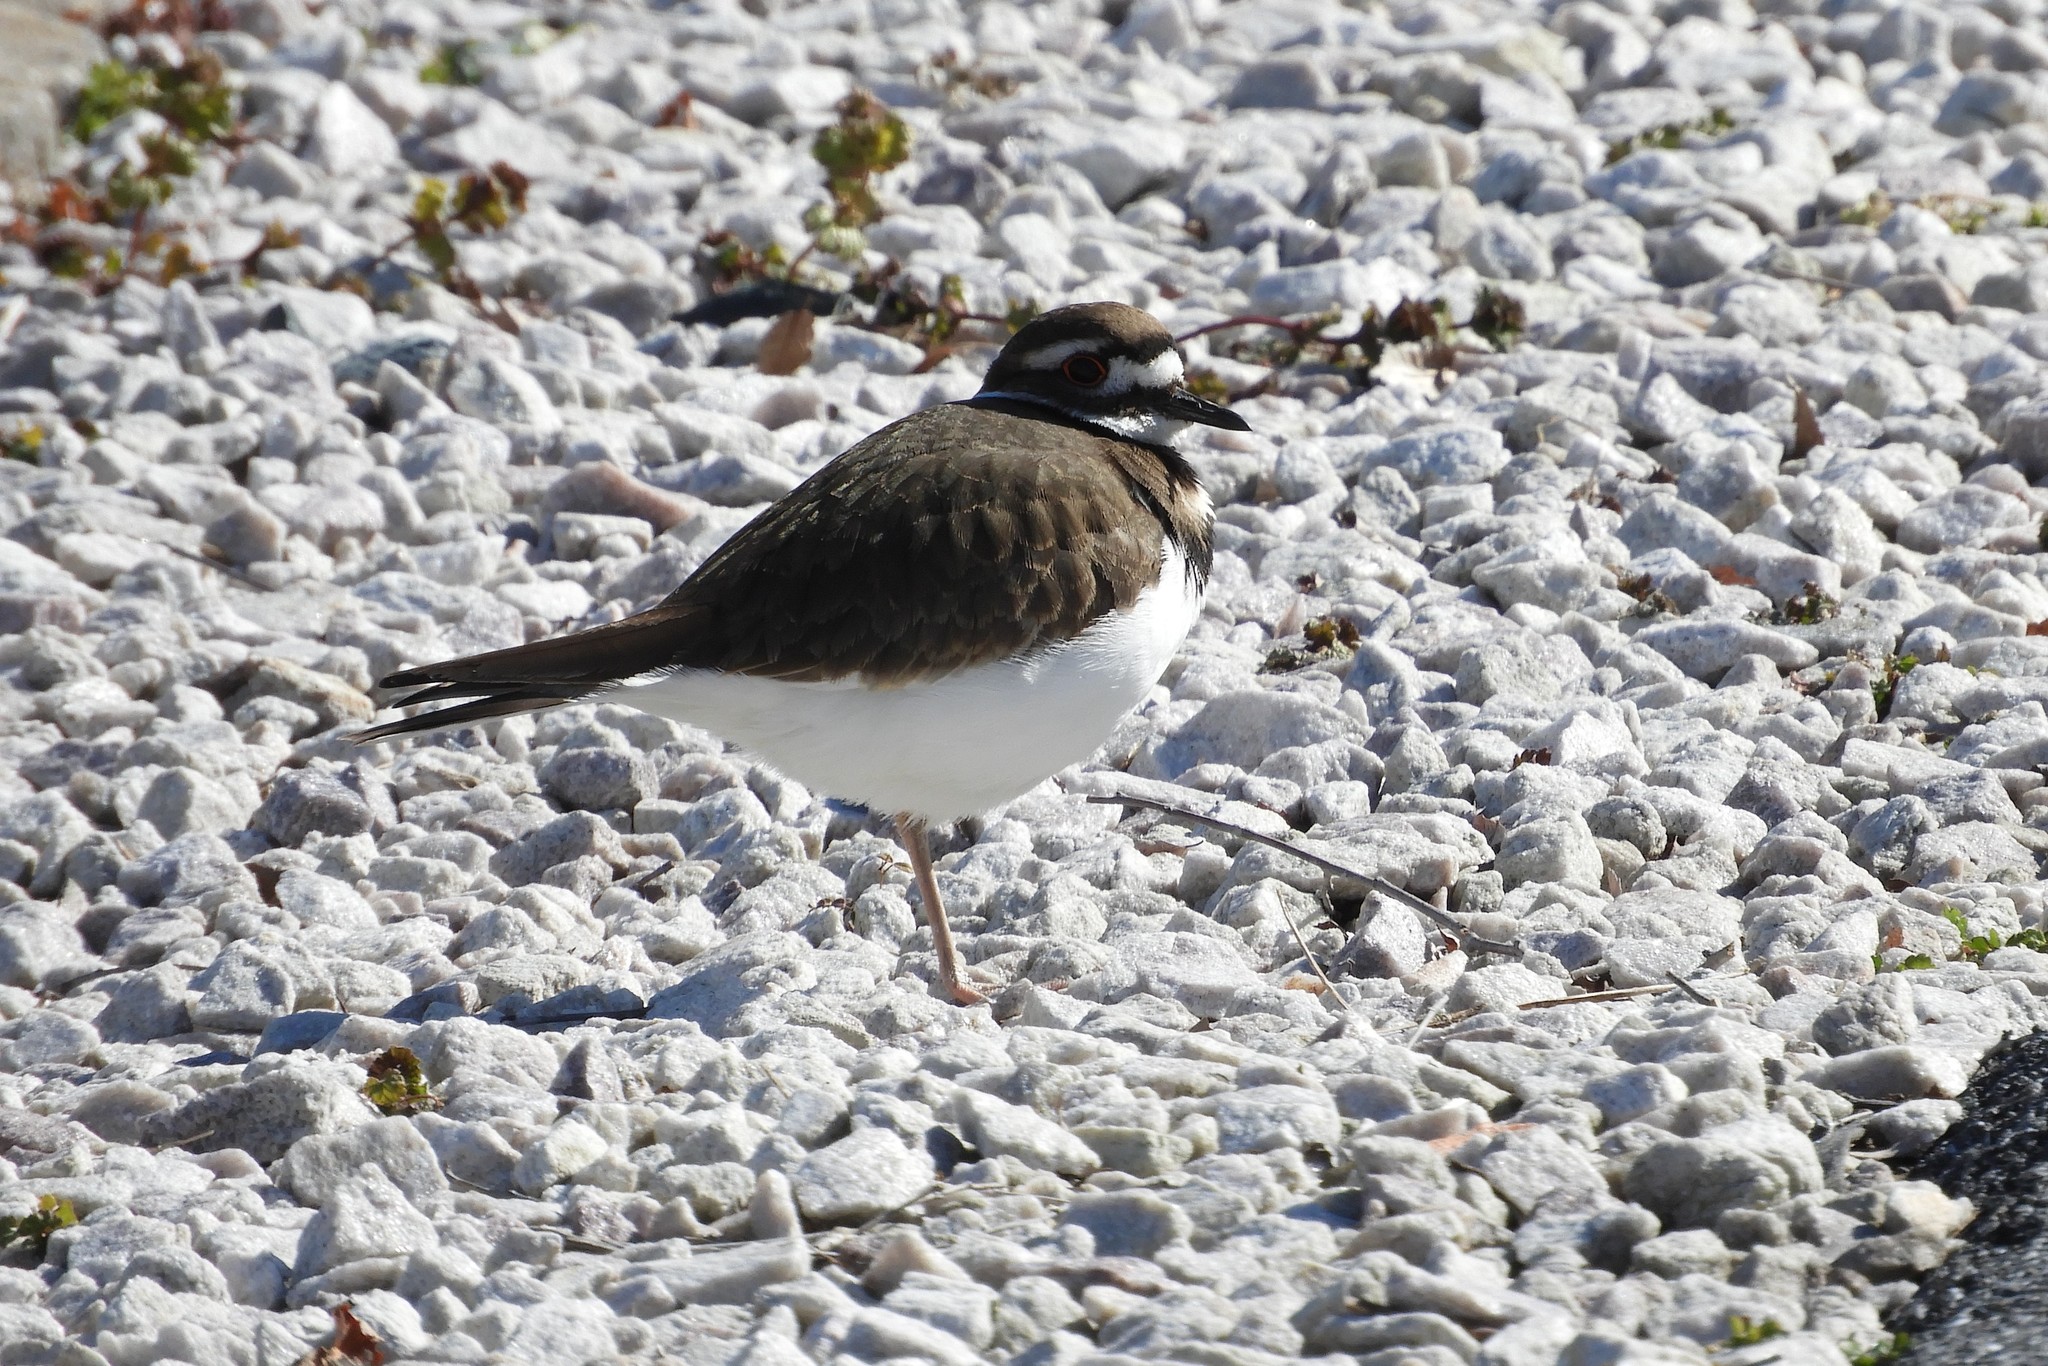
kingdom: Animalia
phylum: Chordata
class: Aves
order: Charadriiformes
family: Charadriidae
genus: Charadrius
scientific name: Charadrius vociferus
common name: Killdeer
